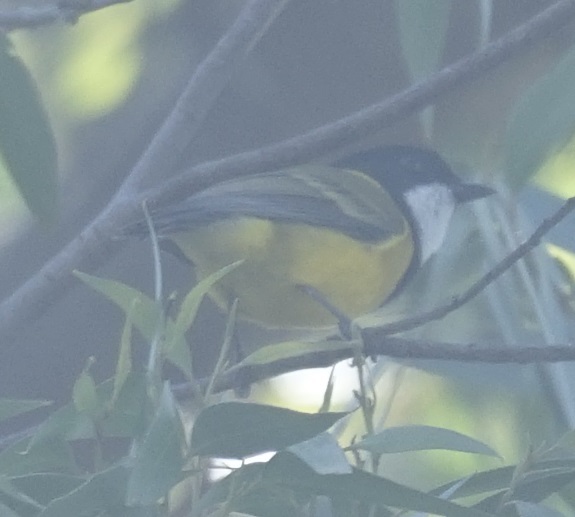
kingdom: Animalia
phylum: Chordata
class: Aves
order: Passeriformes
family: Pachycephalidae
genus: Pachycephala
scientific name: Pachycephala pectoralis
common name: Australian golden whistler
